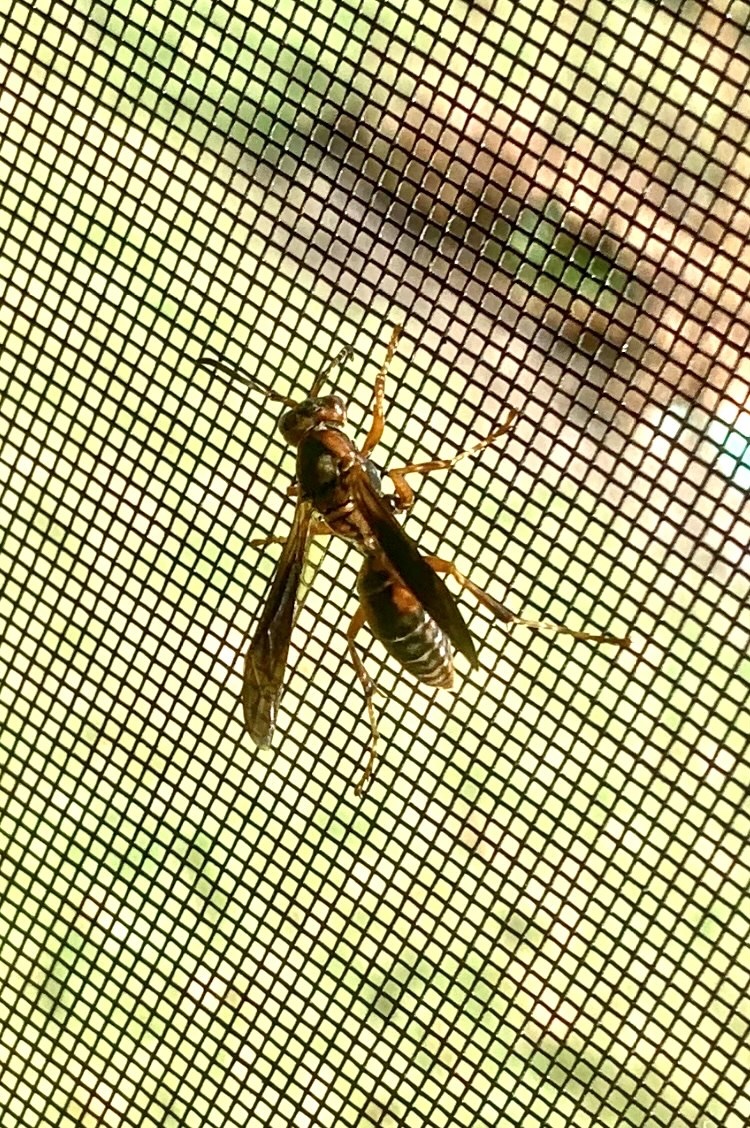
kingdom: Animalia
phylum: Arthropoda
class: Insecta
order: Hymenoptera
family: Eumenidae
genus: Polistes
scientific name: Polistes fuscatus
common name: Dark paper wasp
